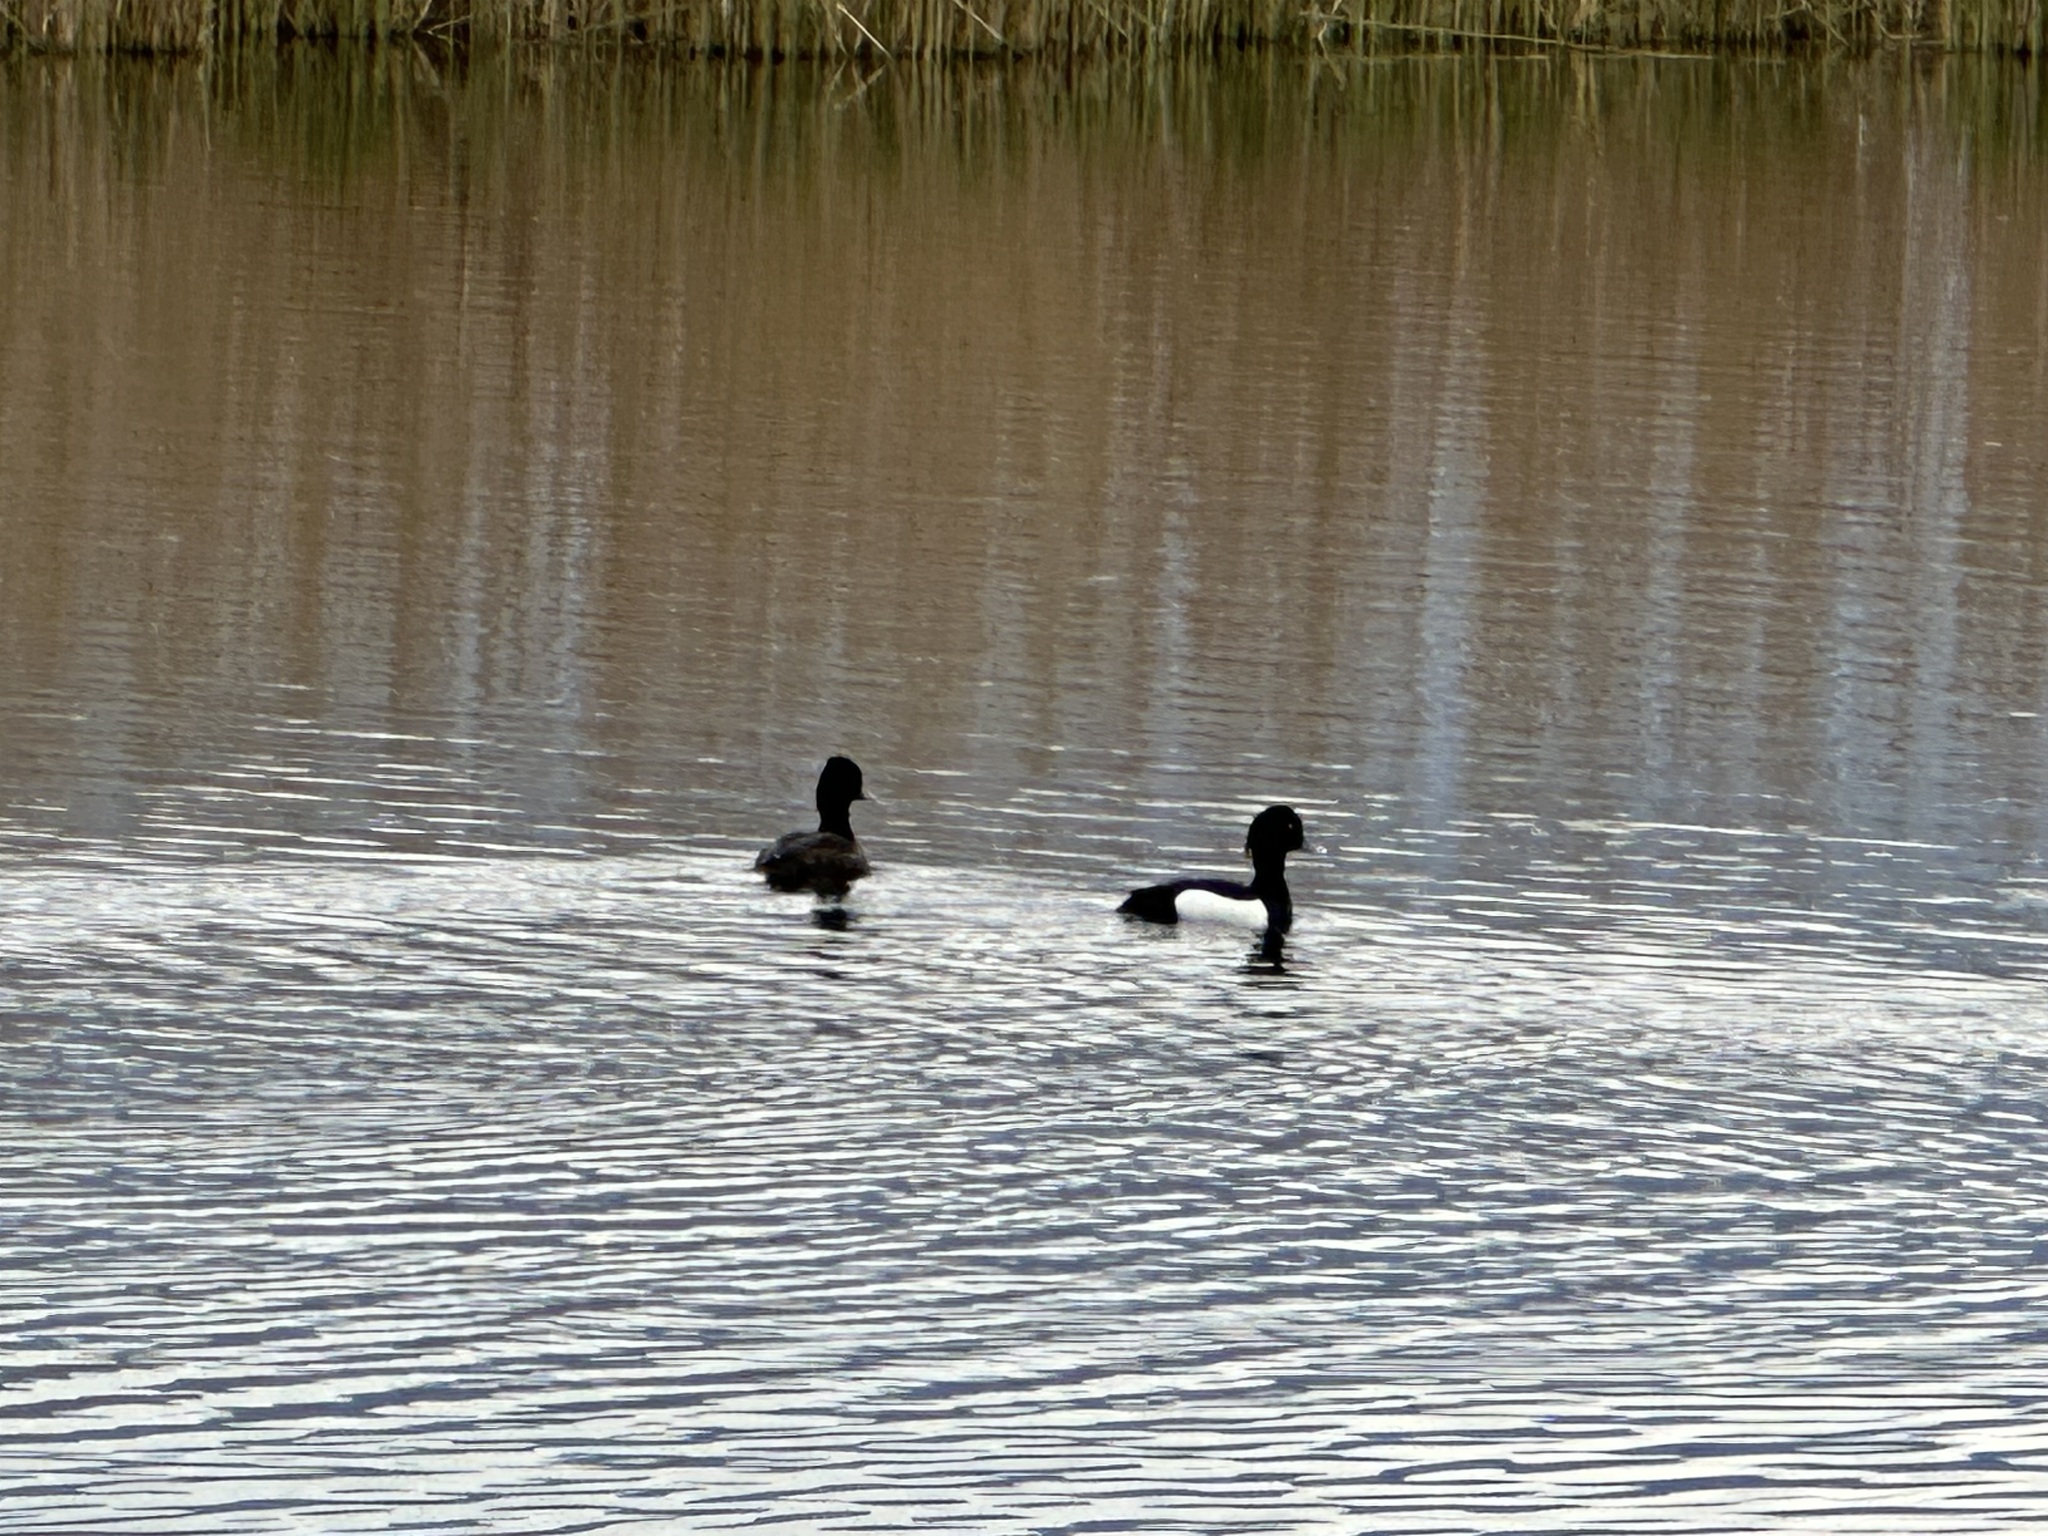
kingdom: Animalia
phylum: Chordata
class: Aves
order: Anseriformes
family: Anatidae
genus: Aythya
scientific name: Aythya fuligula
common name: Tufted duck
